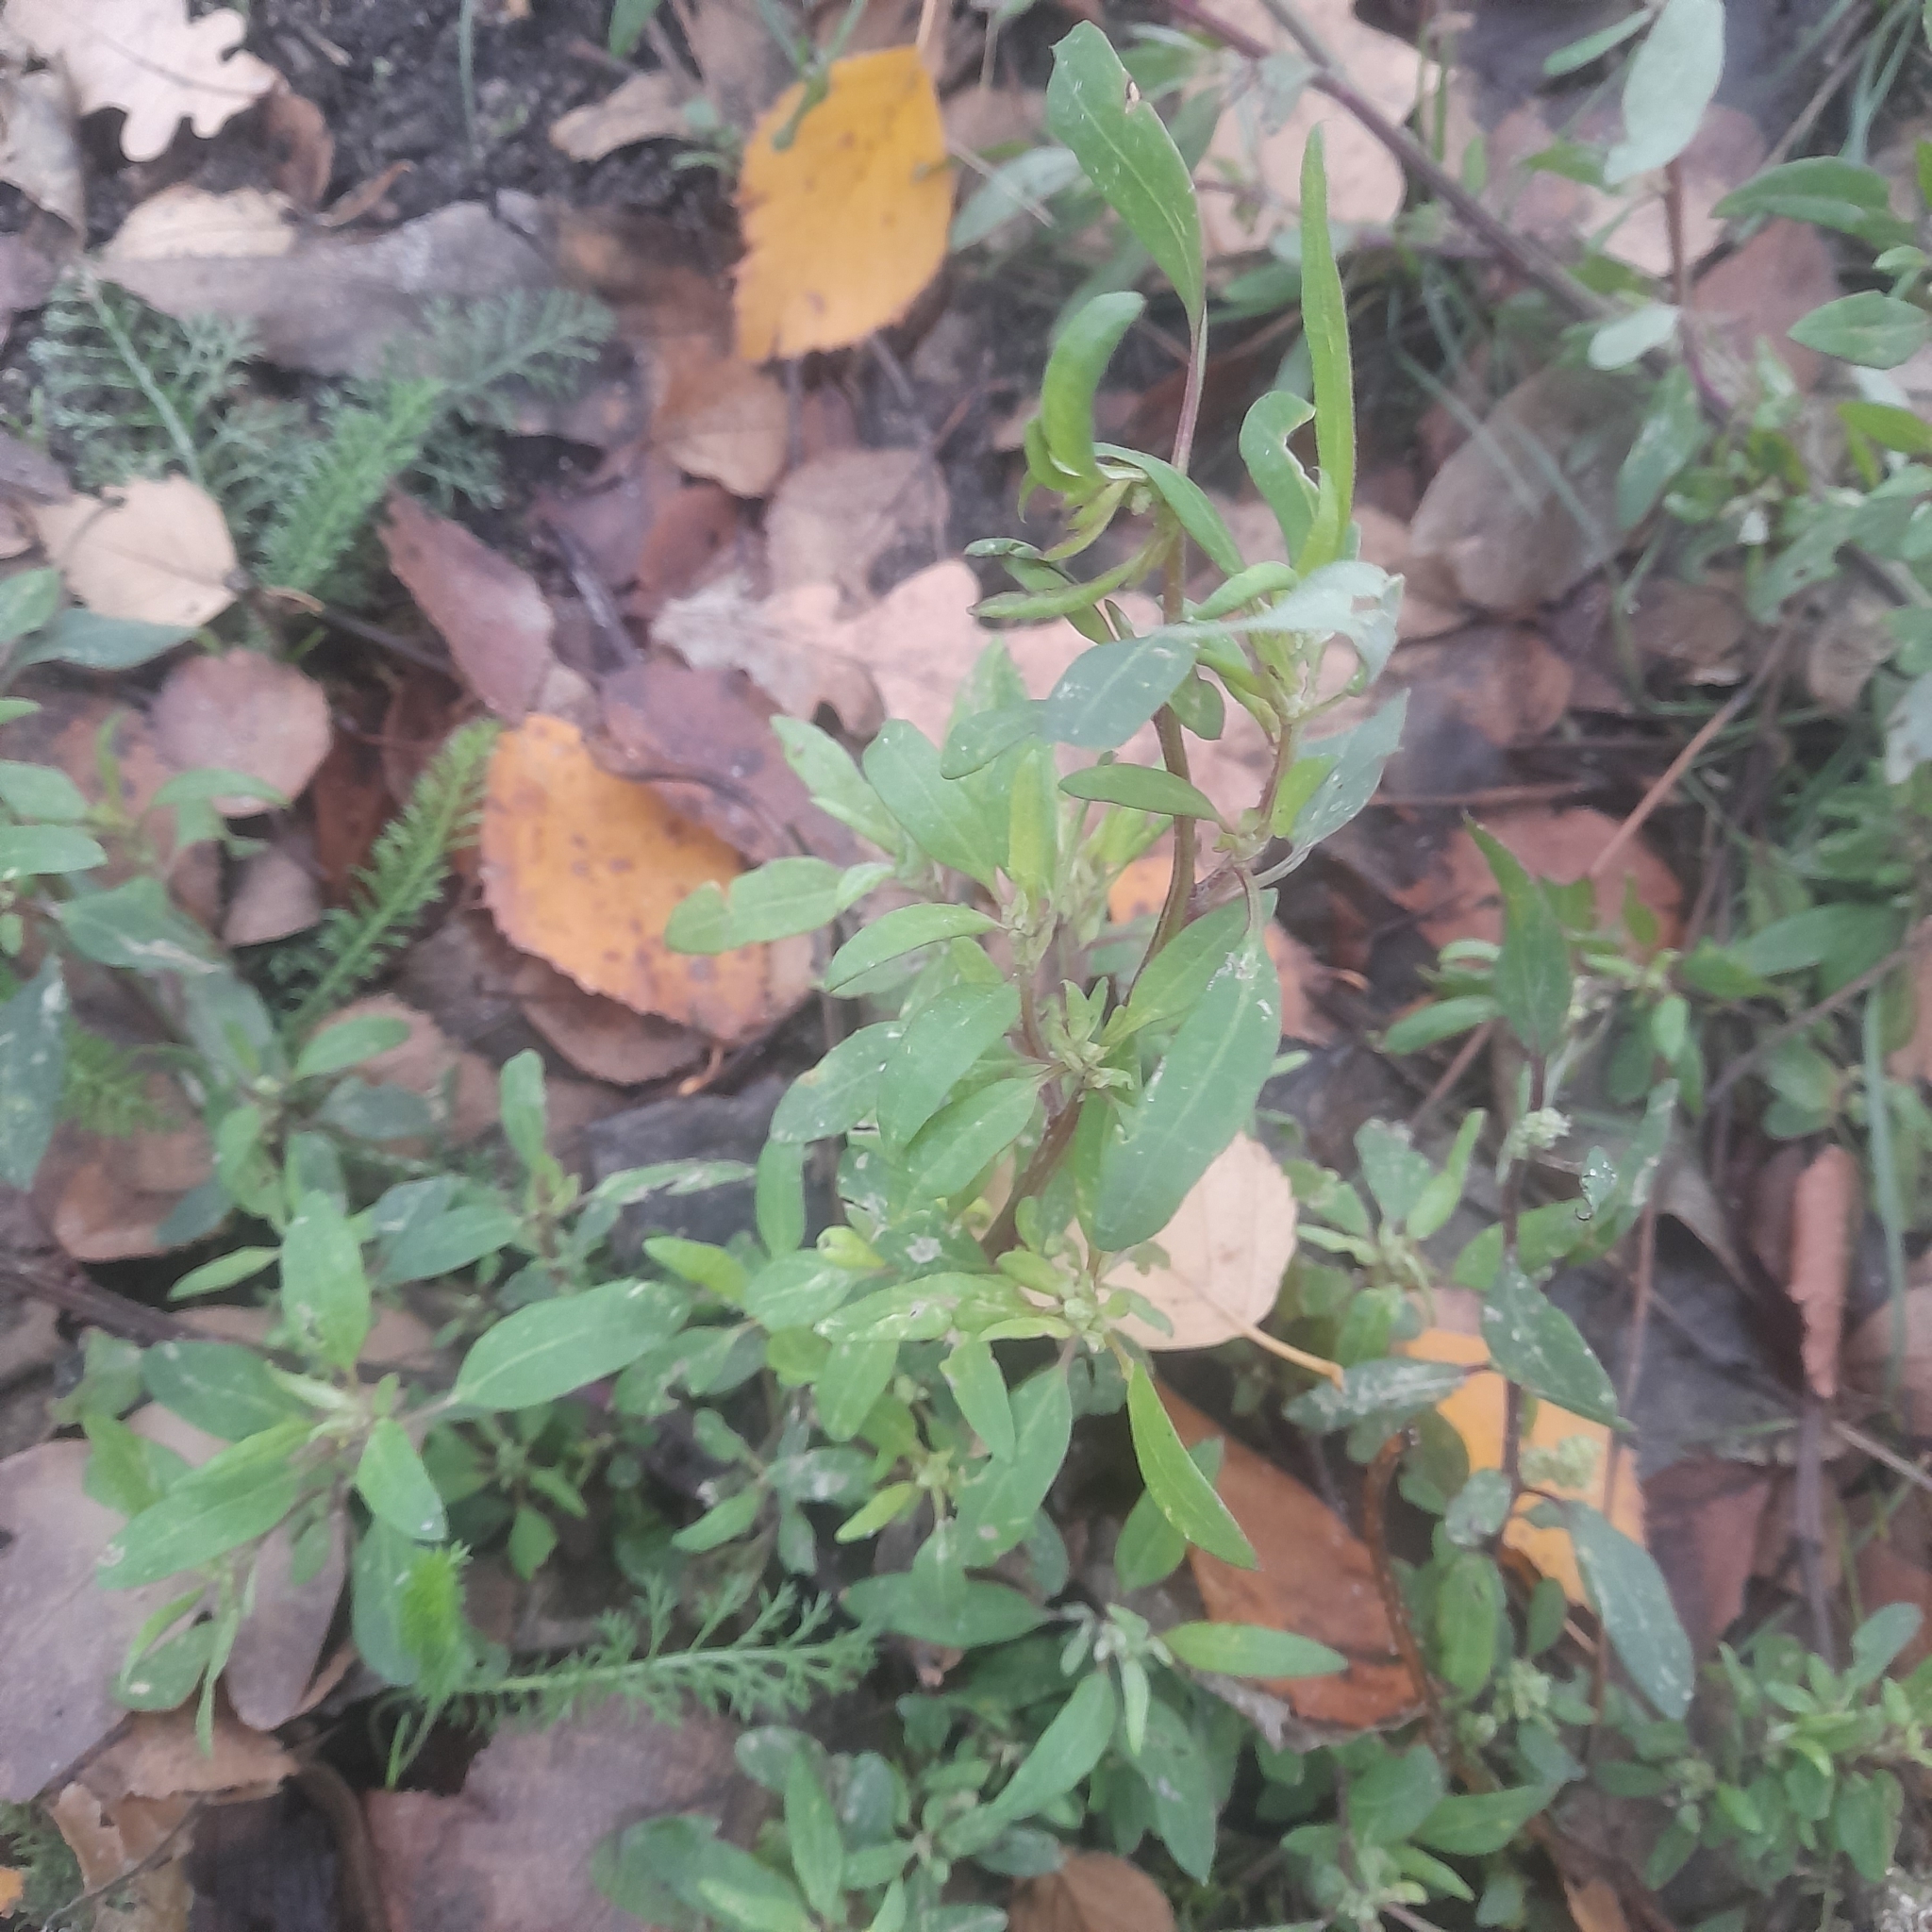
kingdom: Plantae
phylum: Tracheophyta
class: Magnoliopsida
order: Caryophyllales
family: Amaranthaceae
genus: Chenopodium
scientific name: Chenopodium betaceum
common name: Striped goosefoot
